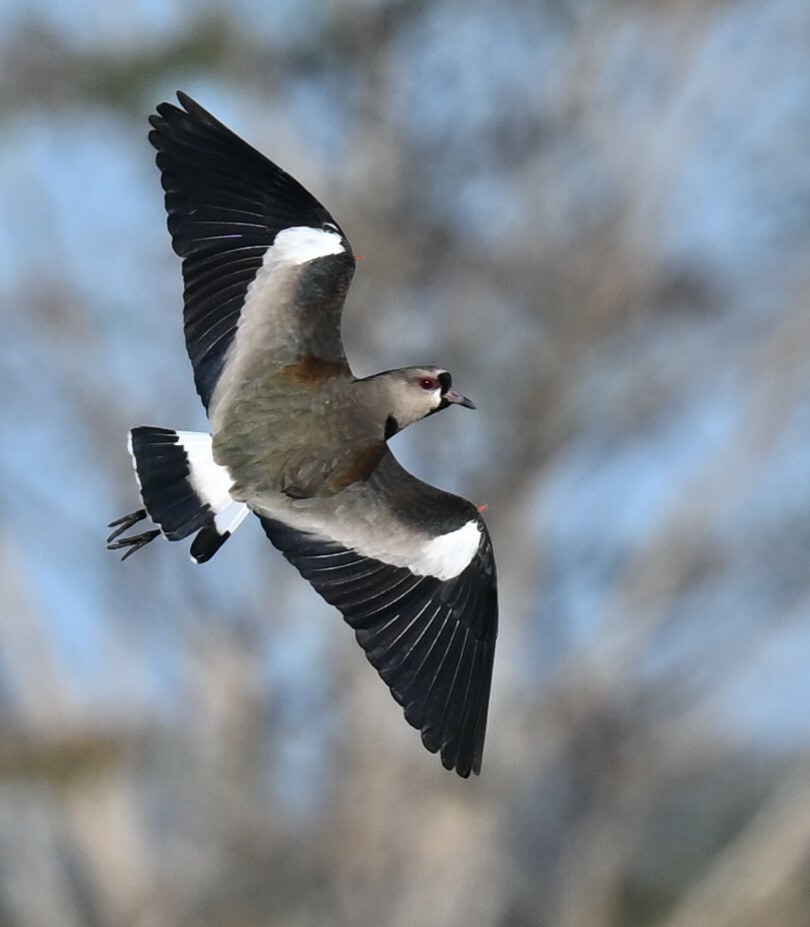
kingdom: Animalia
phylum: Chordata
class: Aves
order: Charadriiformes
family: Charadriidae
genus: Vanellus
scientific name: Vanellus chilensis
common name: Southern lapwing
